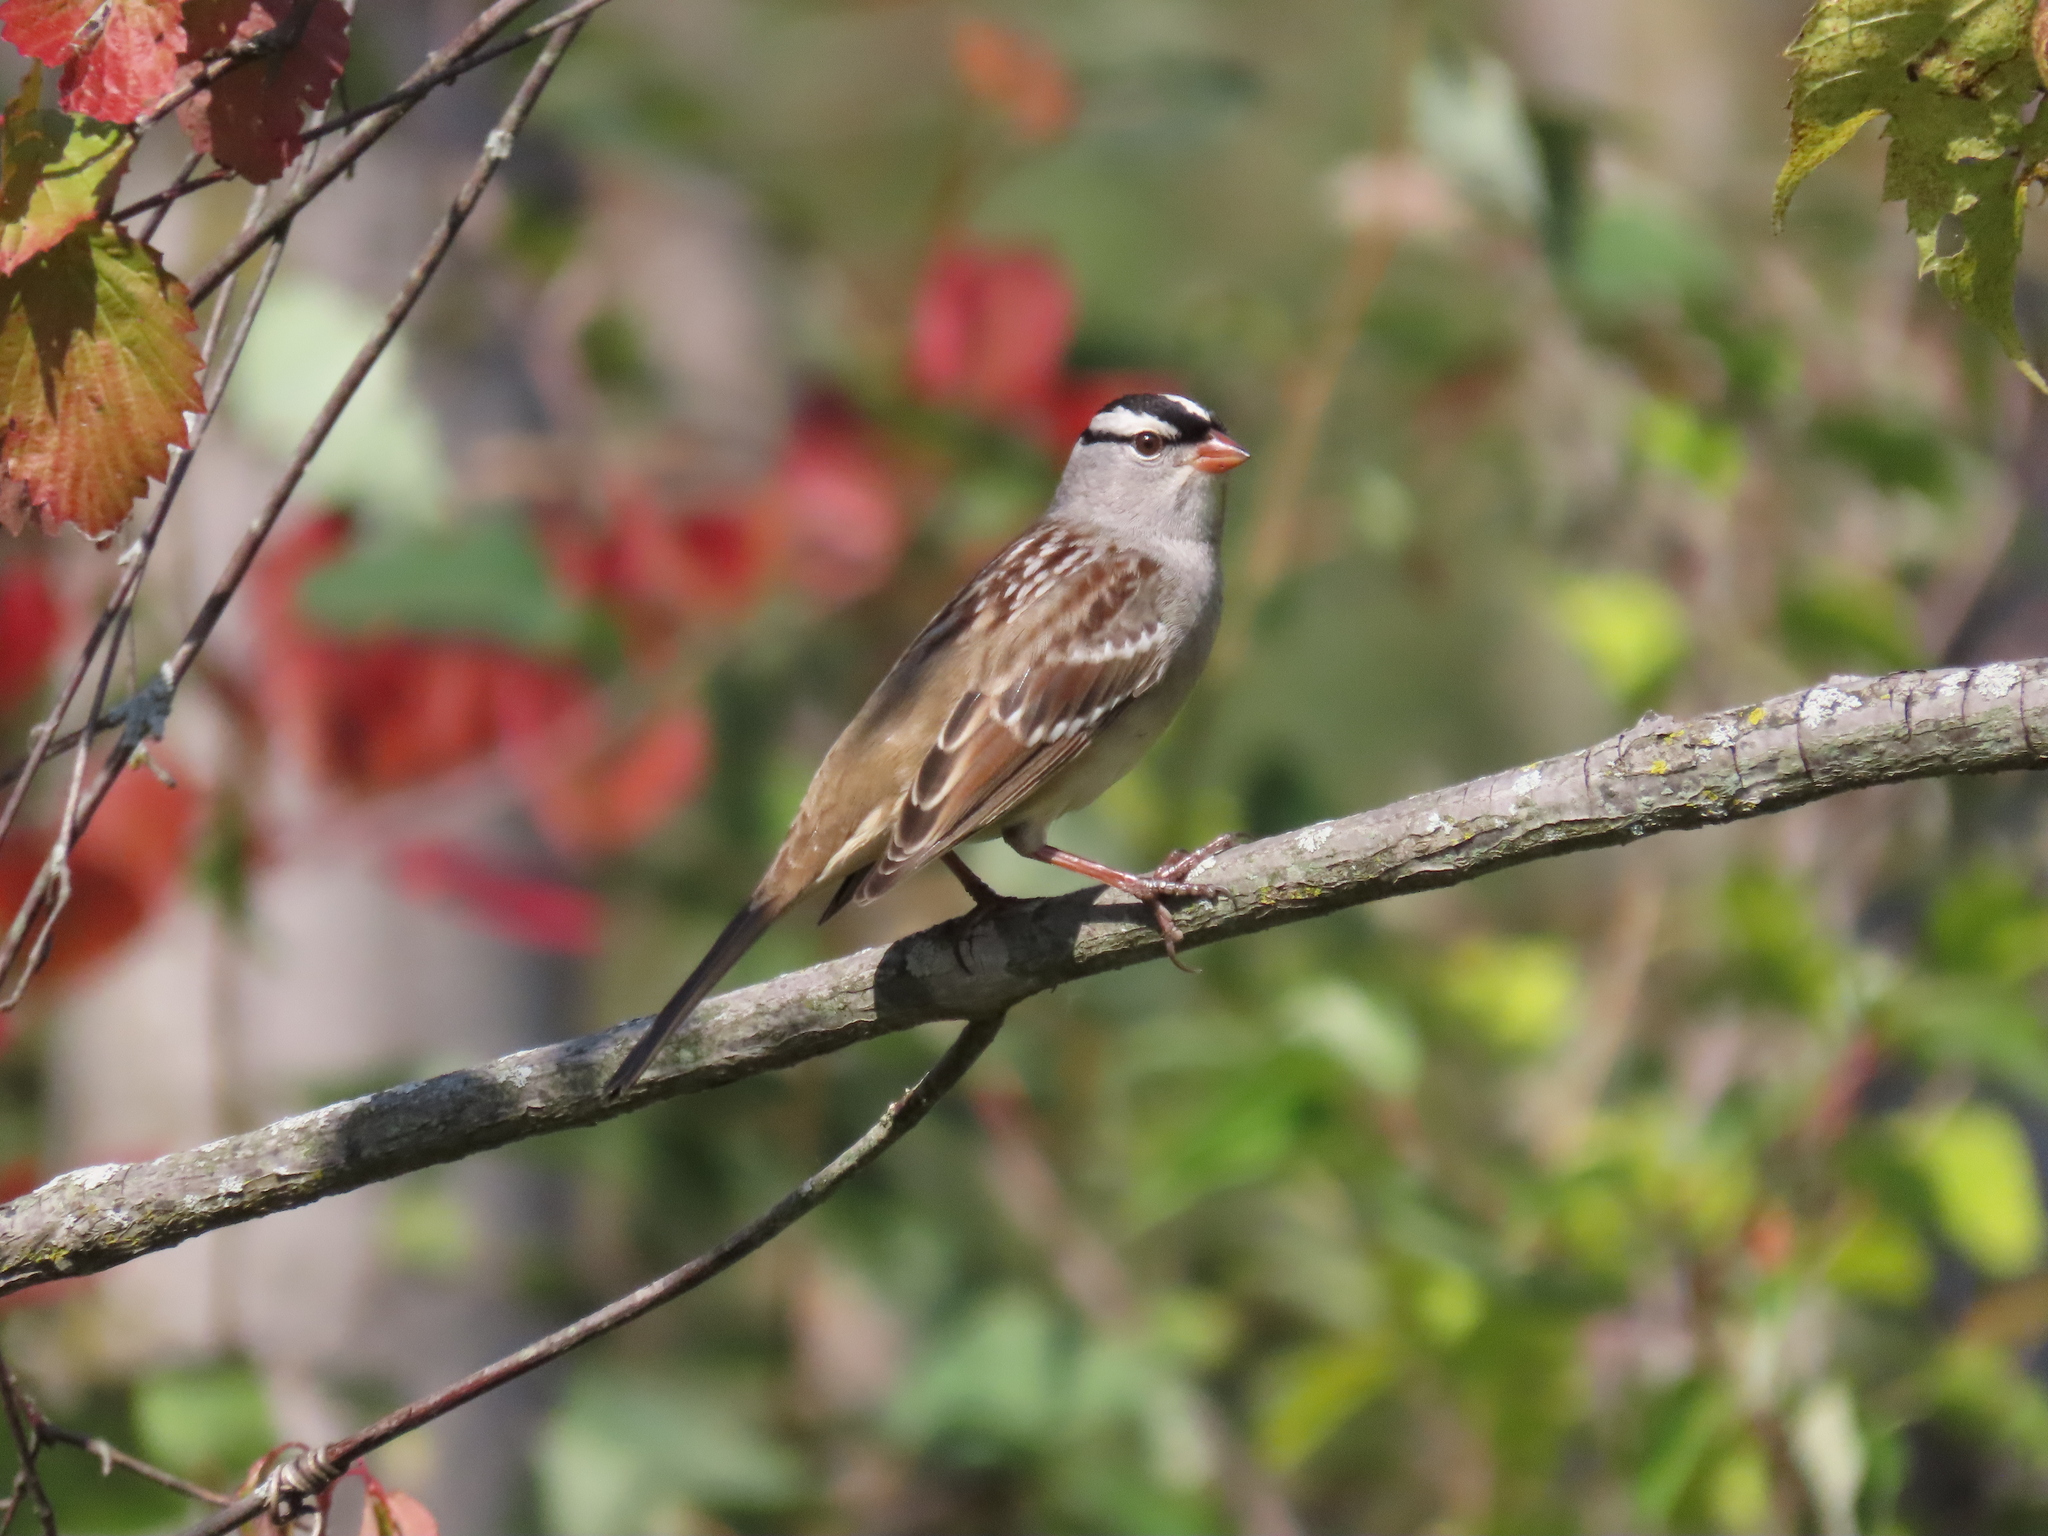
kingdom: Animalia
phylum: Chordata
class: Aves
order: Passeriformes
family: Passerellidae
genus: Zonotrichia
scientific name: Zonotrichia leucophrys
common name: White-crowned sparrow
